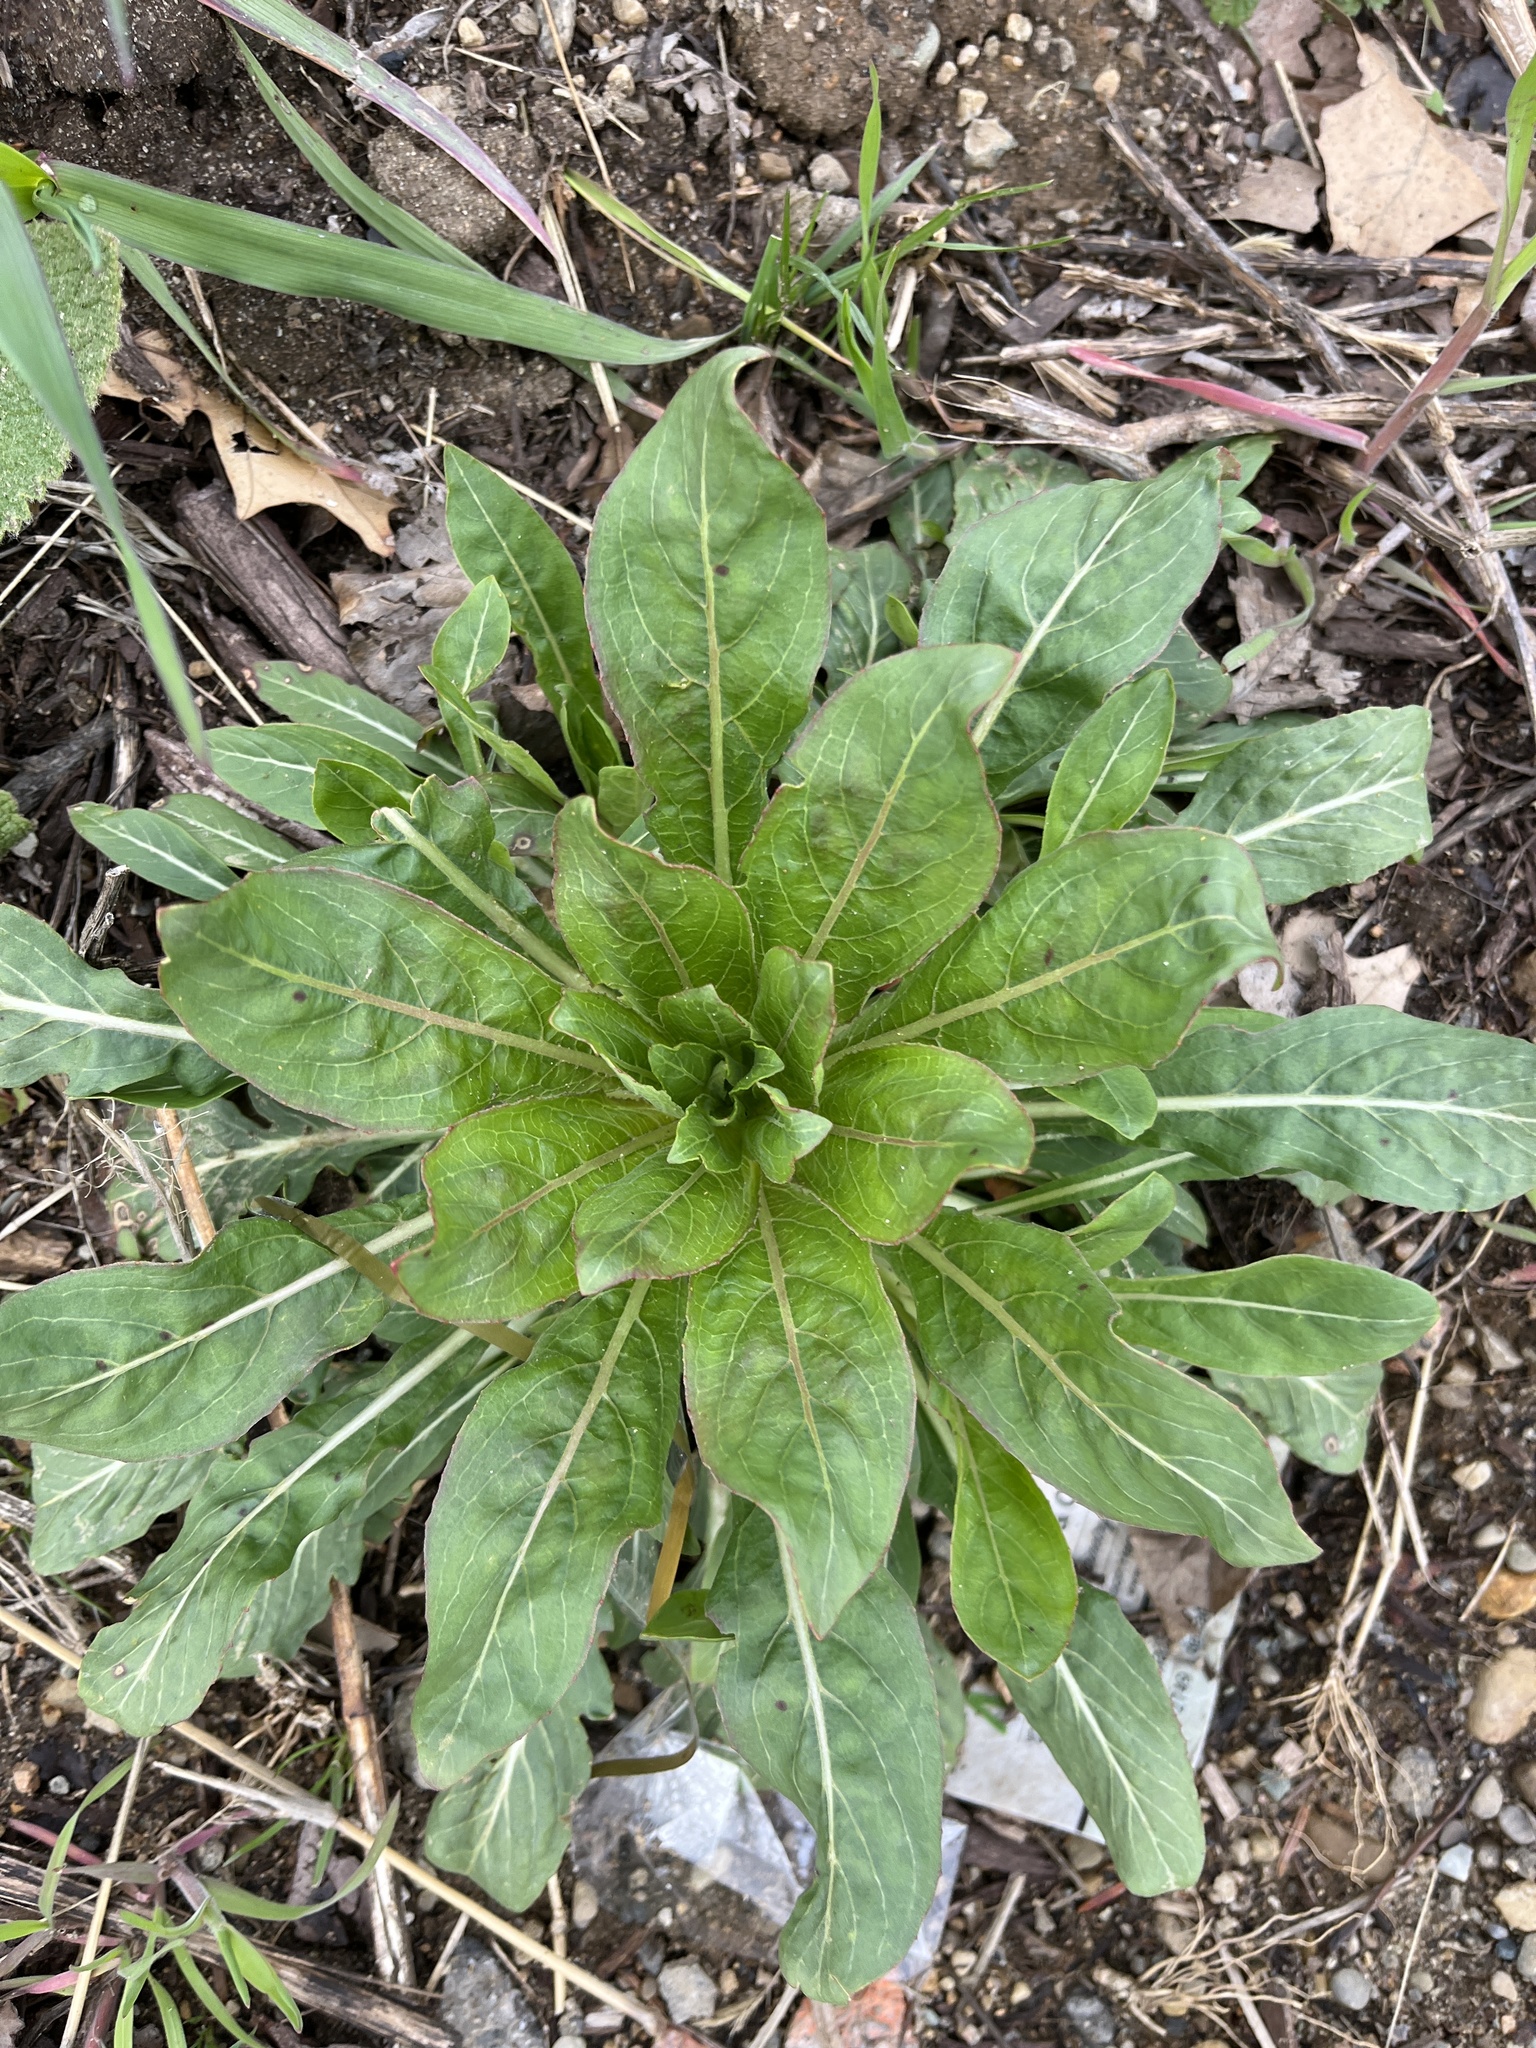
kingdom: Plantae
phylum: Tracheophyta
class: Magnoliopsida
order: Myrtales
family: Onagraceae
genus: Oenothera
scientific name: Oenothera biennis
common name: Common evening-primrose
